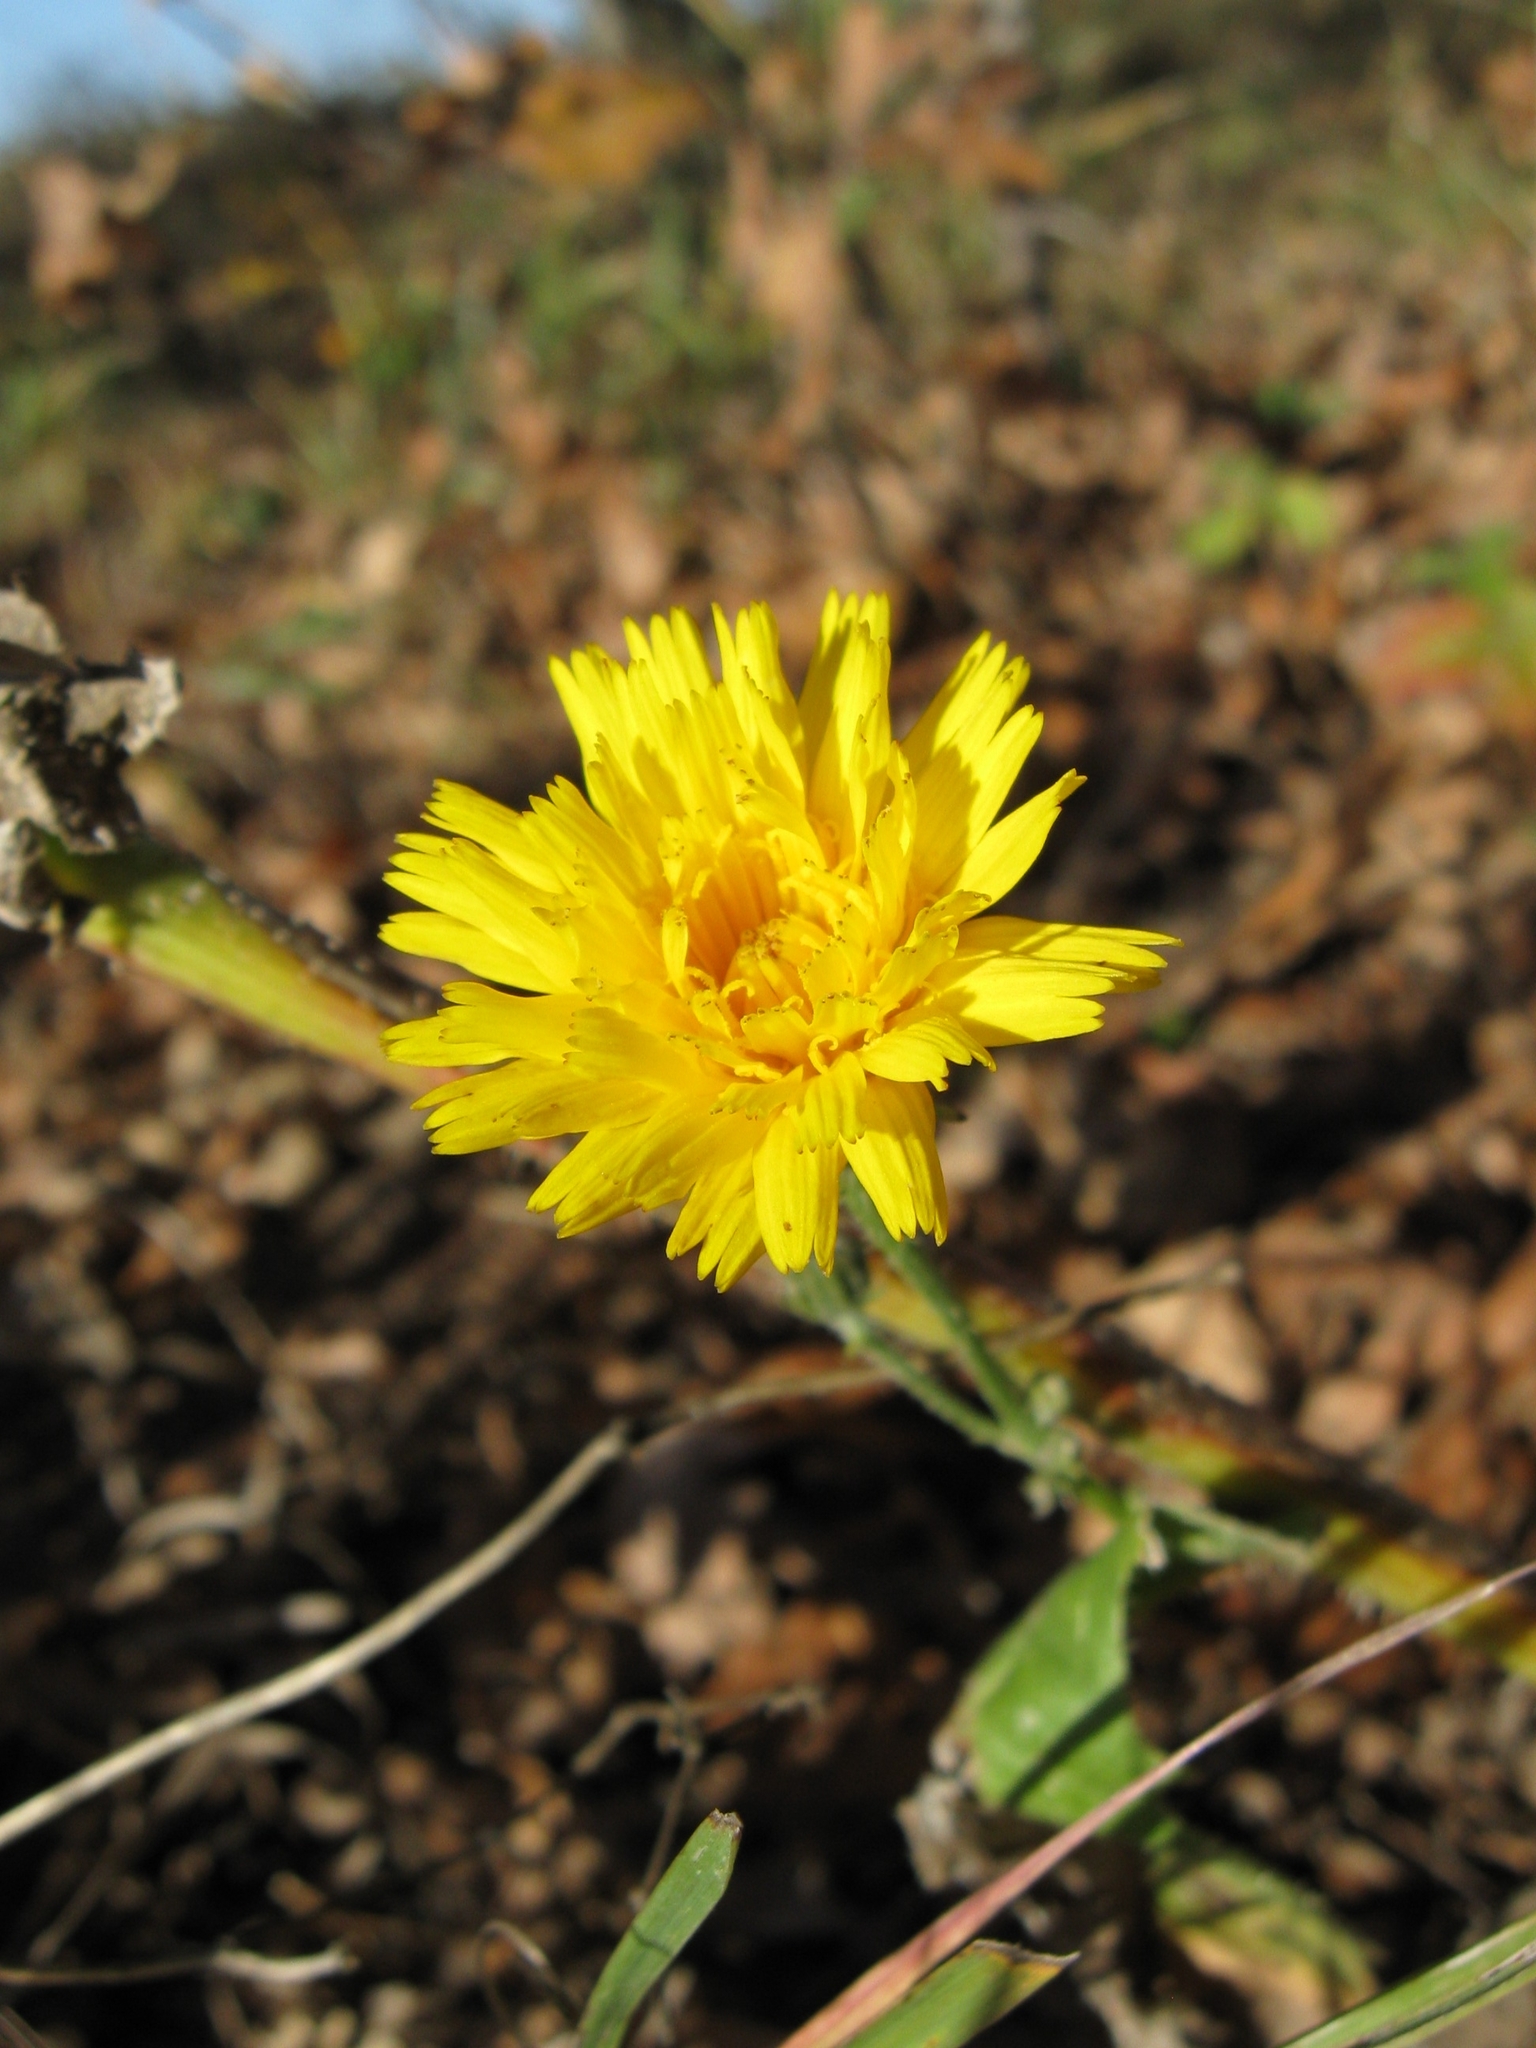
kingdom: Plantae
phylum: Tracheophyta
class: Magnoliopsida
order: Asterales
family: Asteraceae
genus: Picris
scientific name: Picris hieracioides
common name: Hawkweed oxtongue
